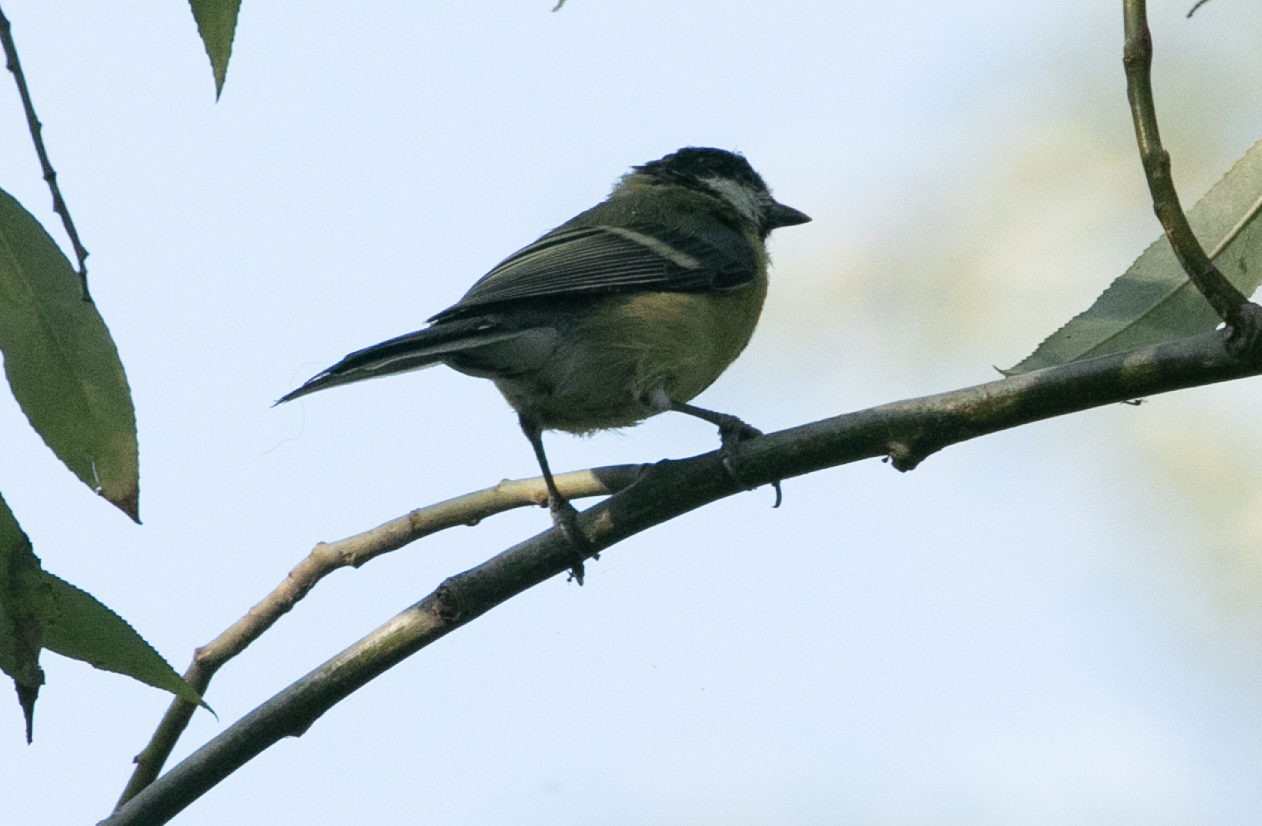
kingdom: Animalia
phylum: Chordata
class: Aves
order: Passeriformes
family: Paridae
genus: Parus
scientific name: Parus major
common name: Great tit
